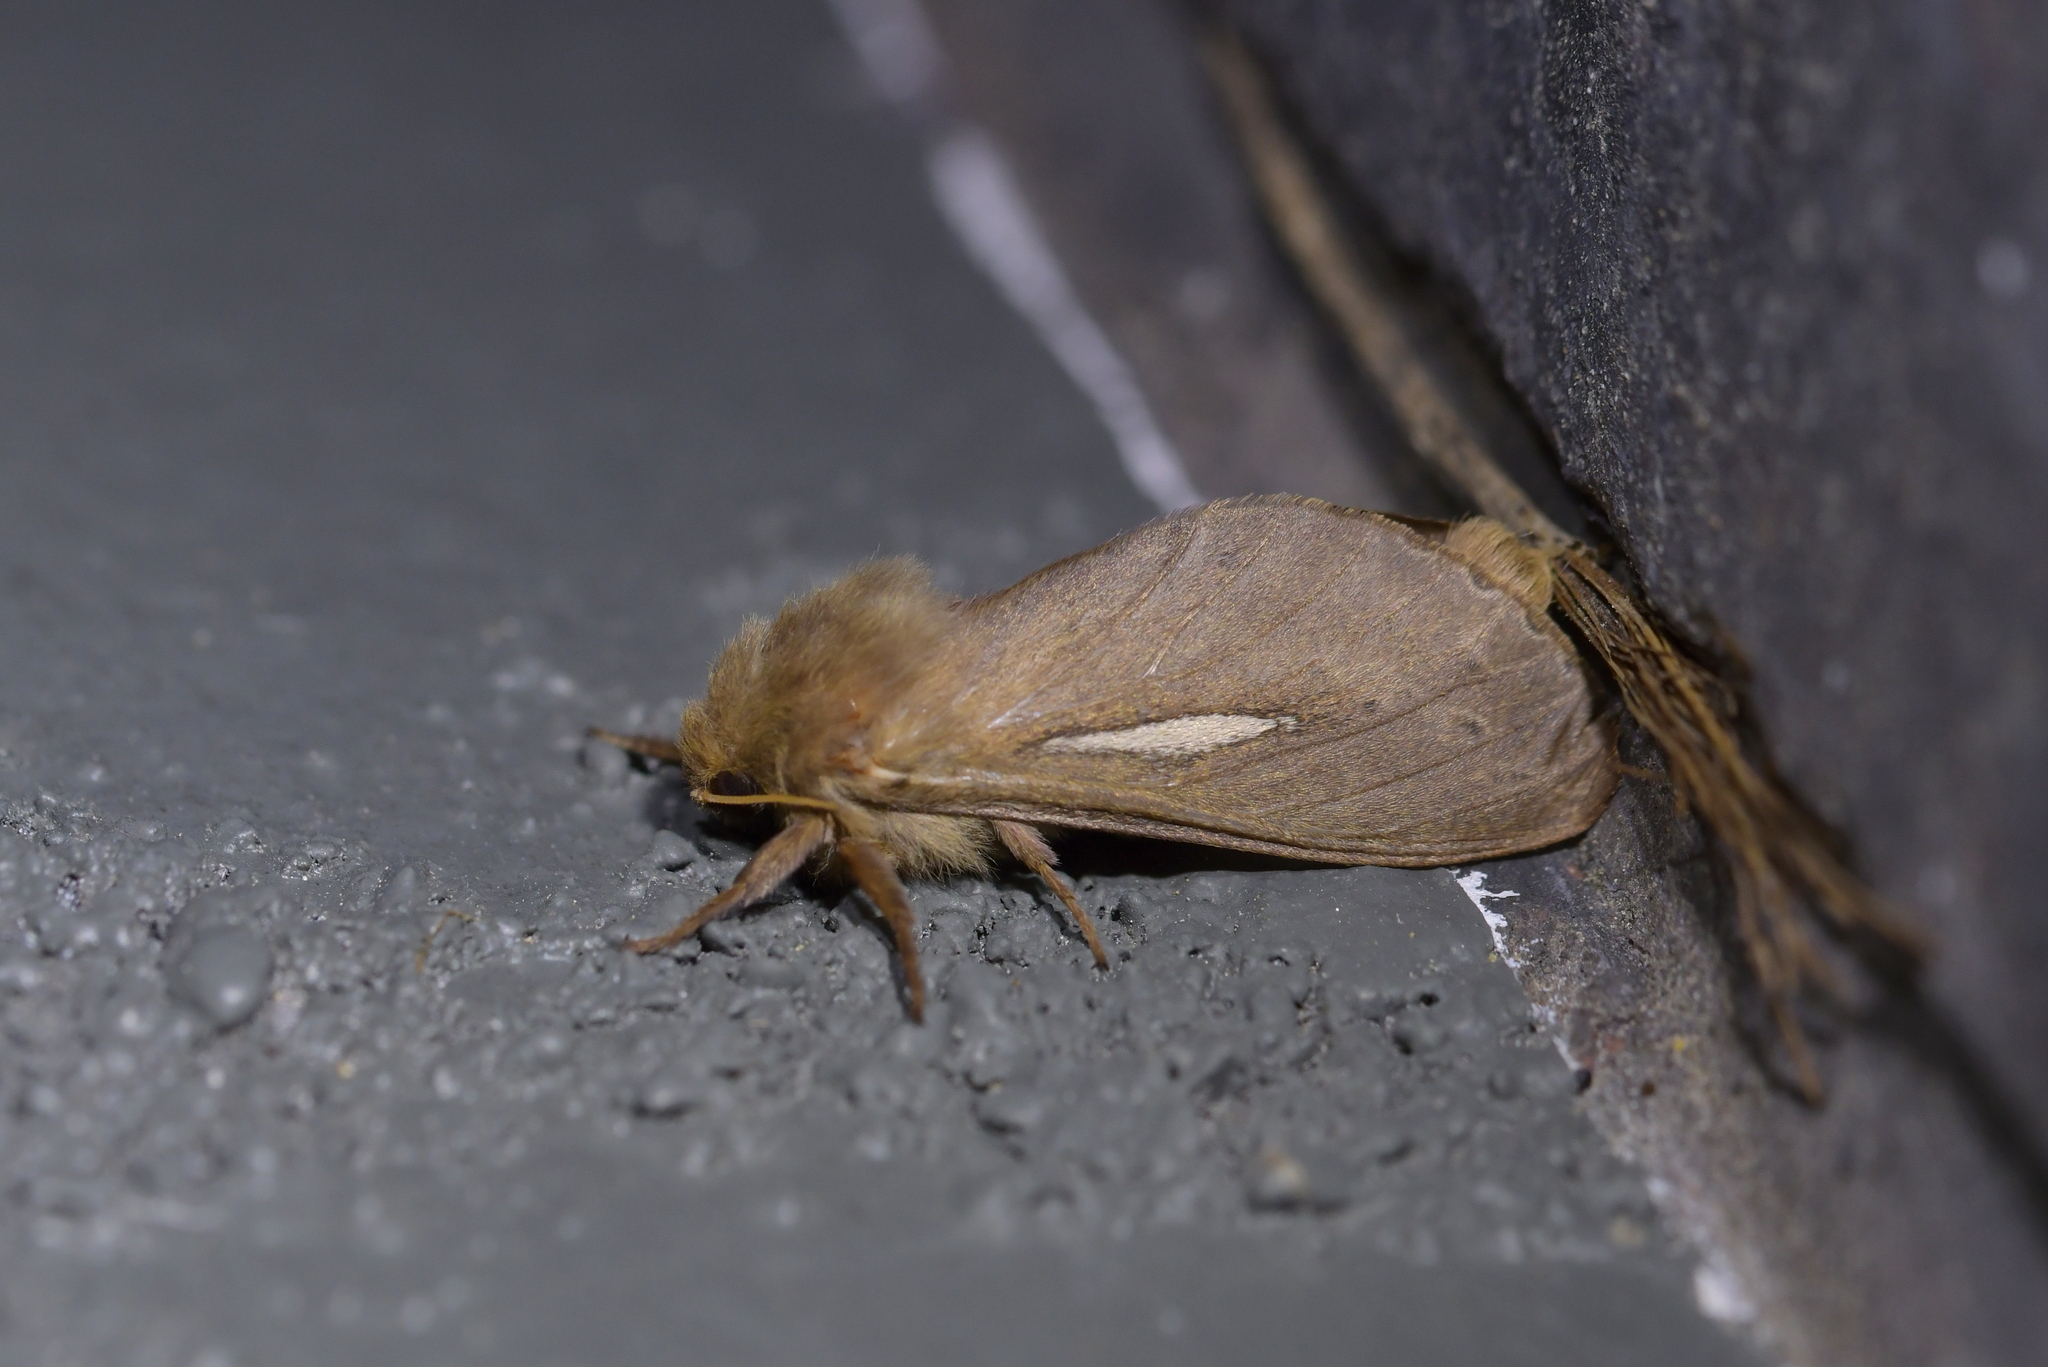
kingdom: Animalia
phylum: Arthropoda
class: Insecta
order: Lepidoptera
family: Hepialidae
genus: Wiseana
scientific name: Wiseana umbraculatus
